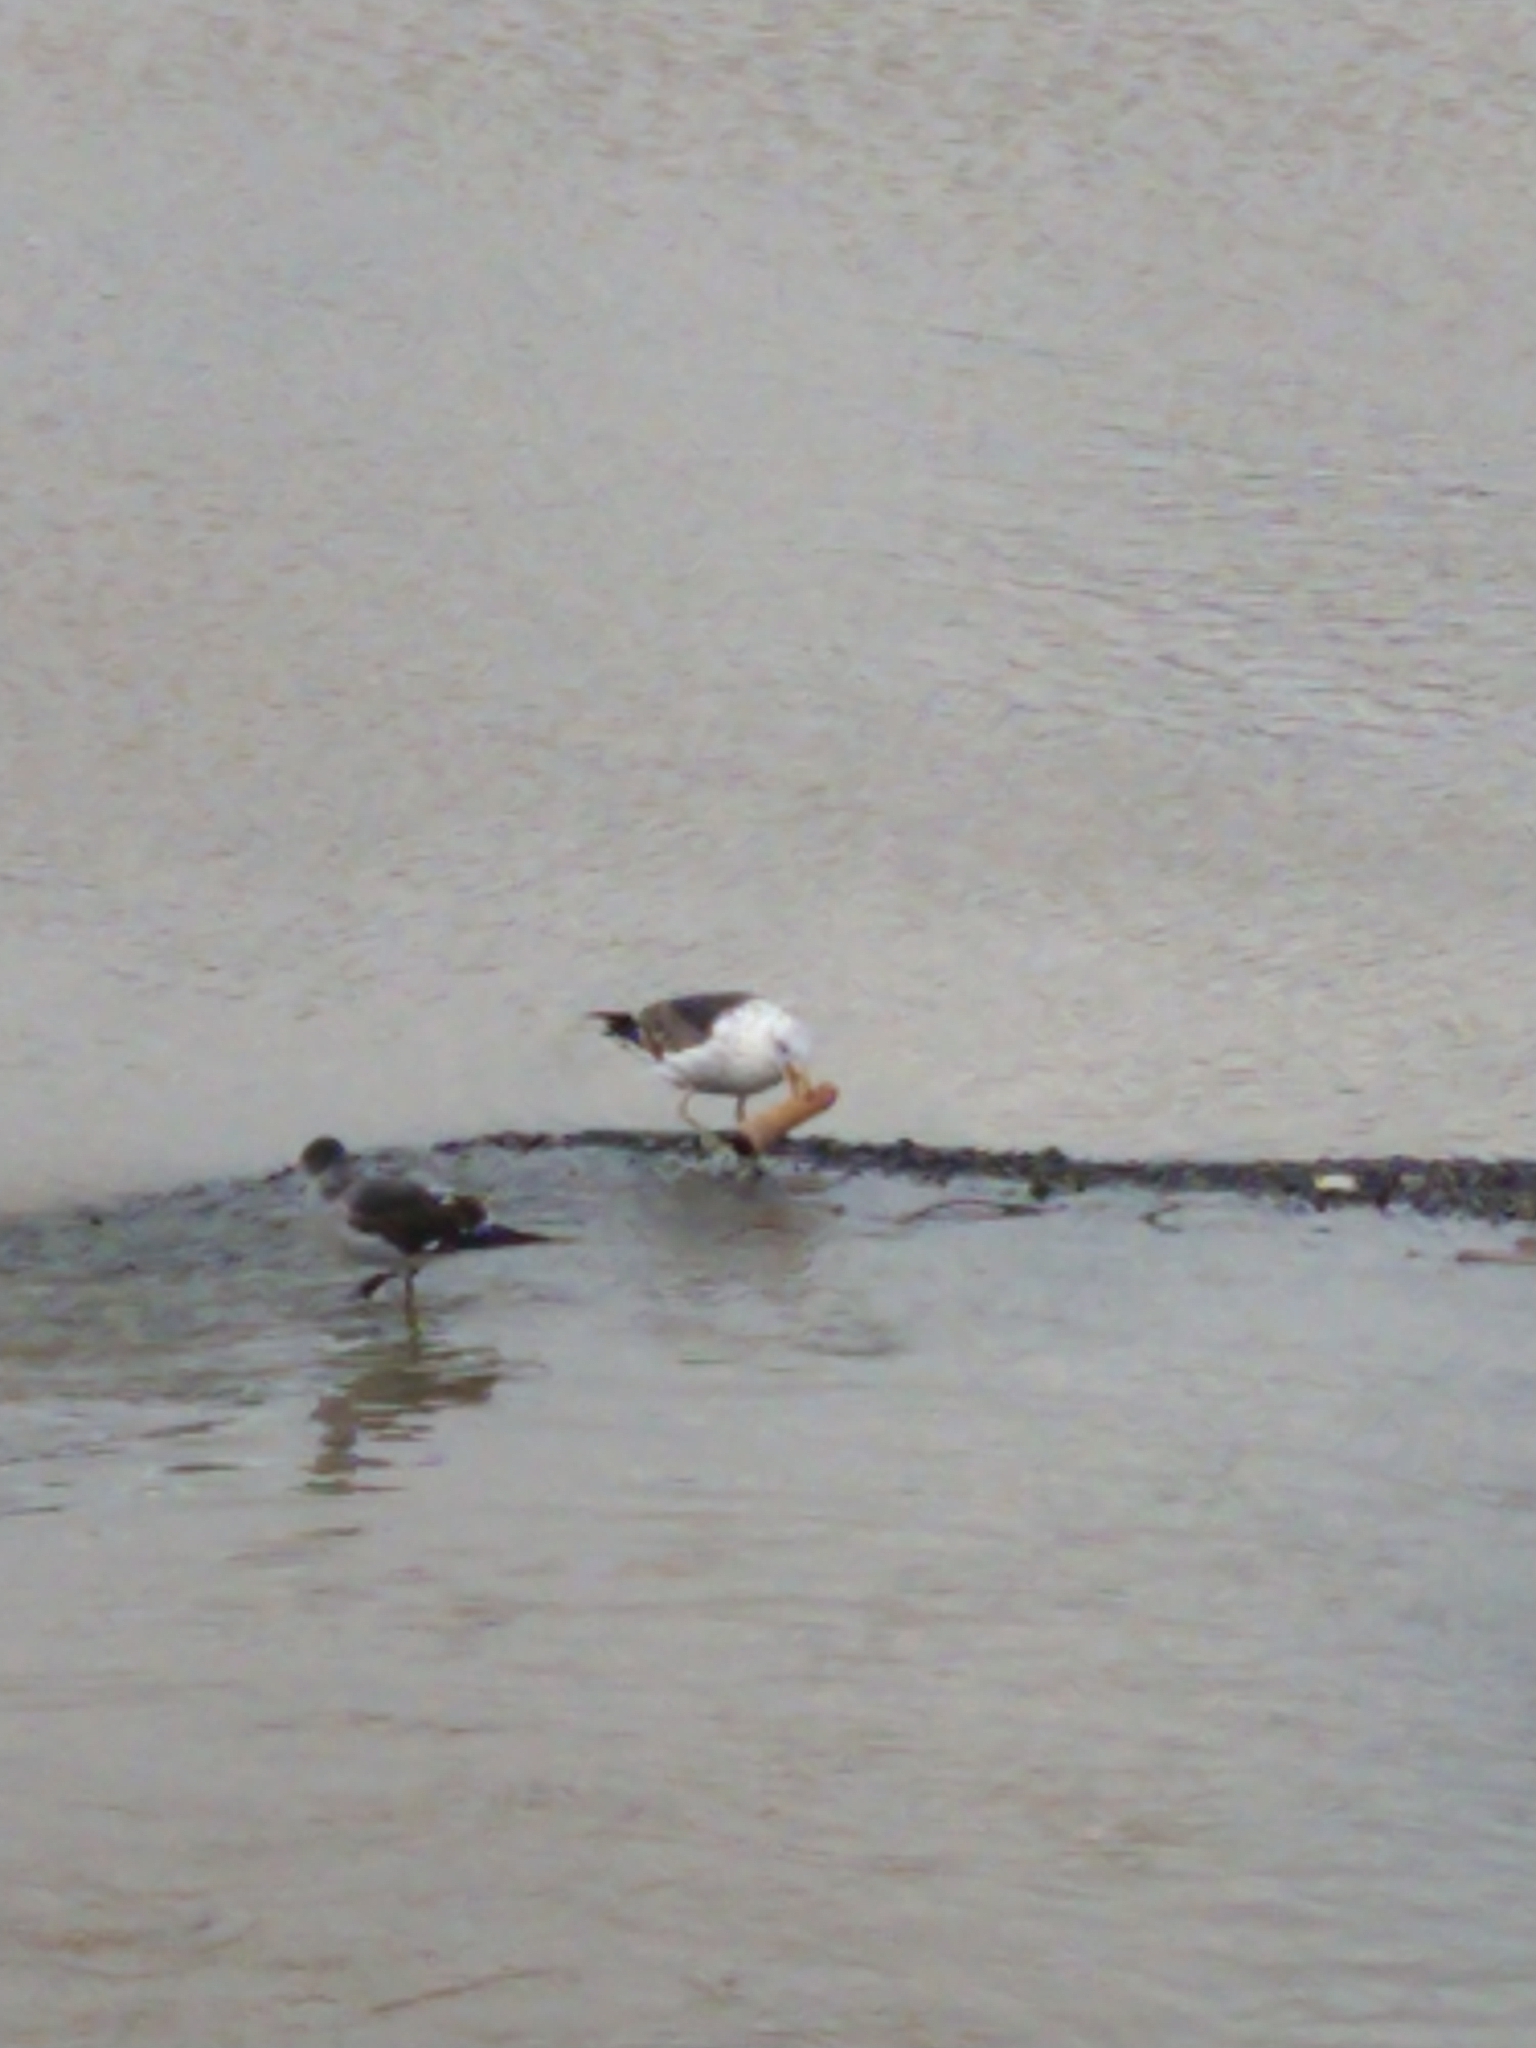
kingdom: Animalia
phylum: Chordata
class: Aves
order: Charadriiformes
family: Laridae
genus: Larus
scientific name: Larus dominicanus
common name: Kelp gull
